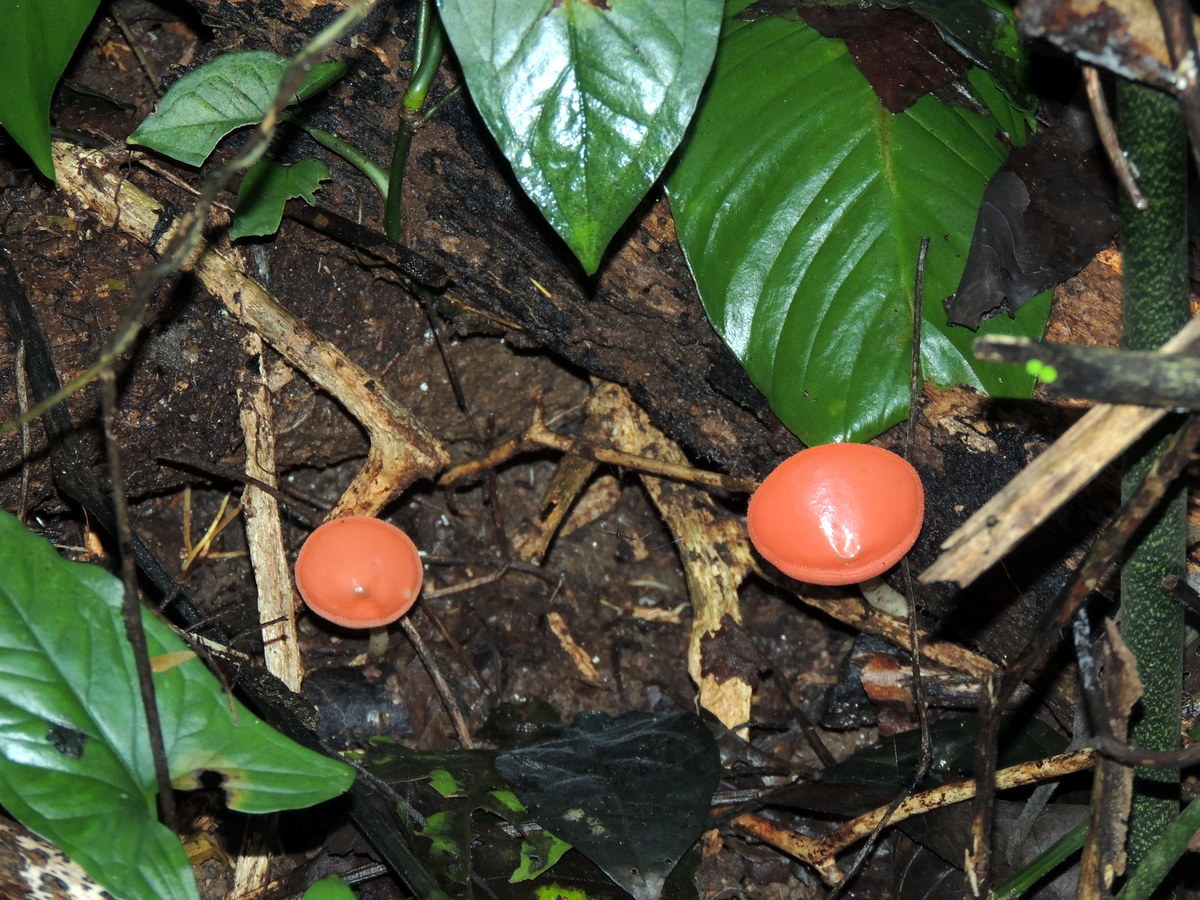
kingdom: Fungi
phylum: Ascomycota
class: Pezizomycetes
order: Pezizales
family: Sarcoscyphaceae
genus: Cookeina
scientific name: Cookeina speciosa
